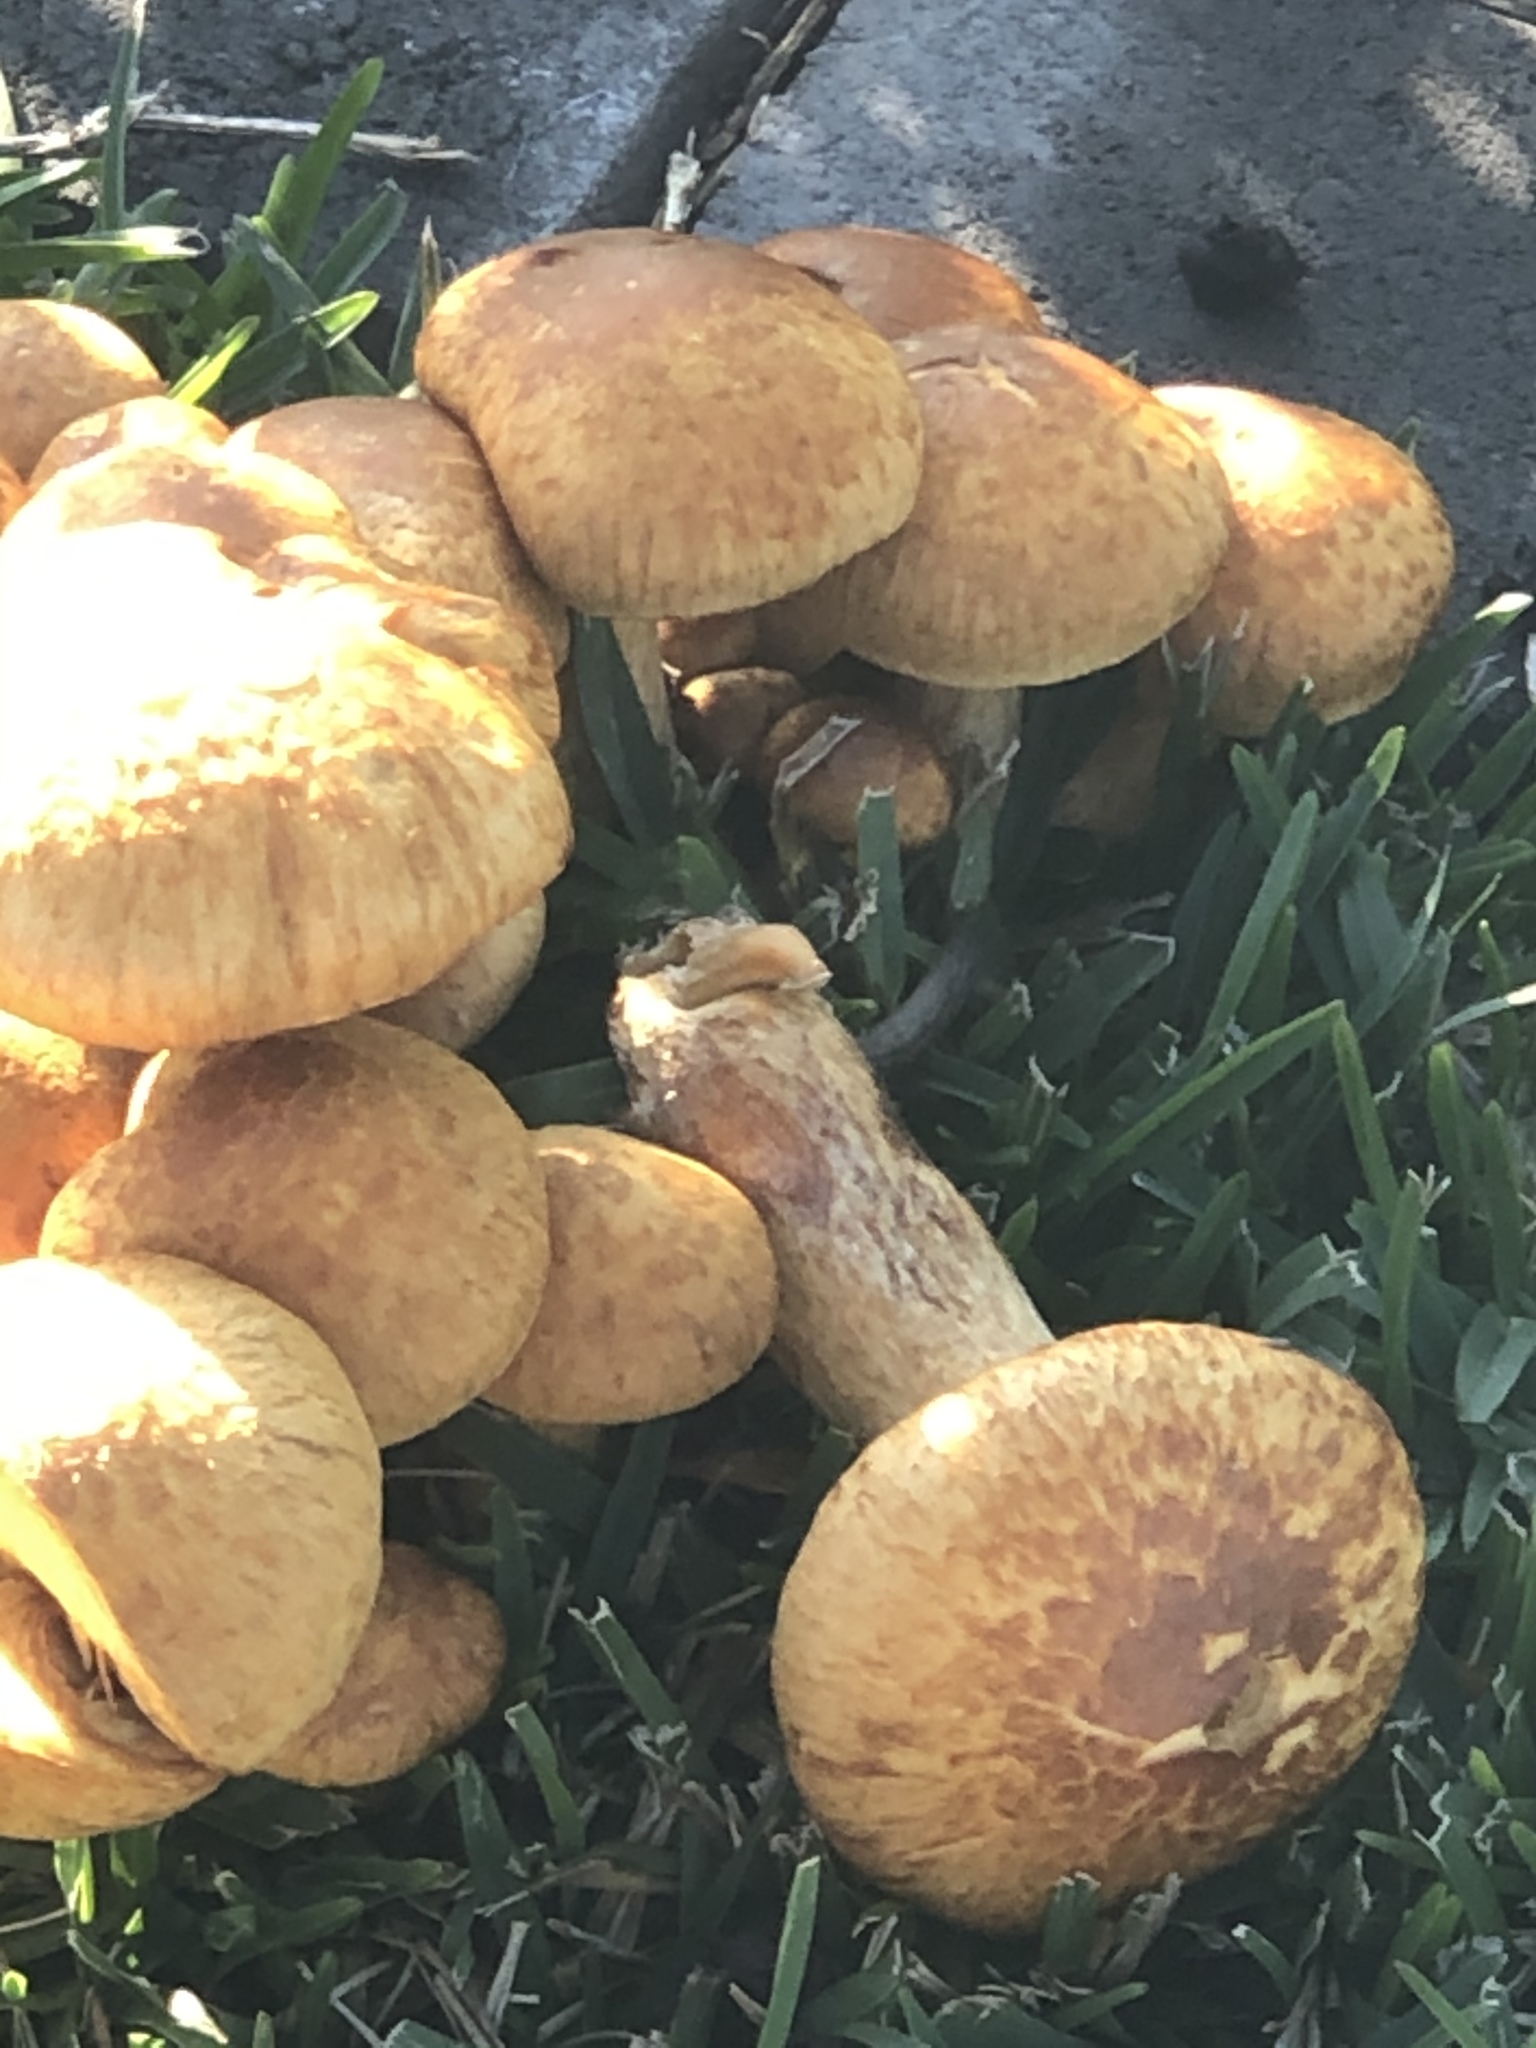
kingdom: Fungi
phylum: Basidiomycota
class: Agaricomycetes
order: Agaricales
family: Hymenogastraceae
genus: Gymnopilus
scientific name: Gymnopilus junonius
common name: Spectacular rustgill
